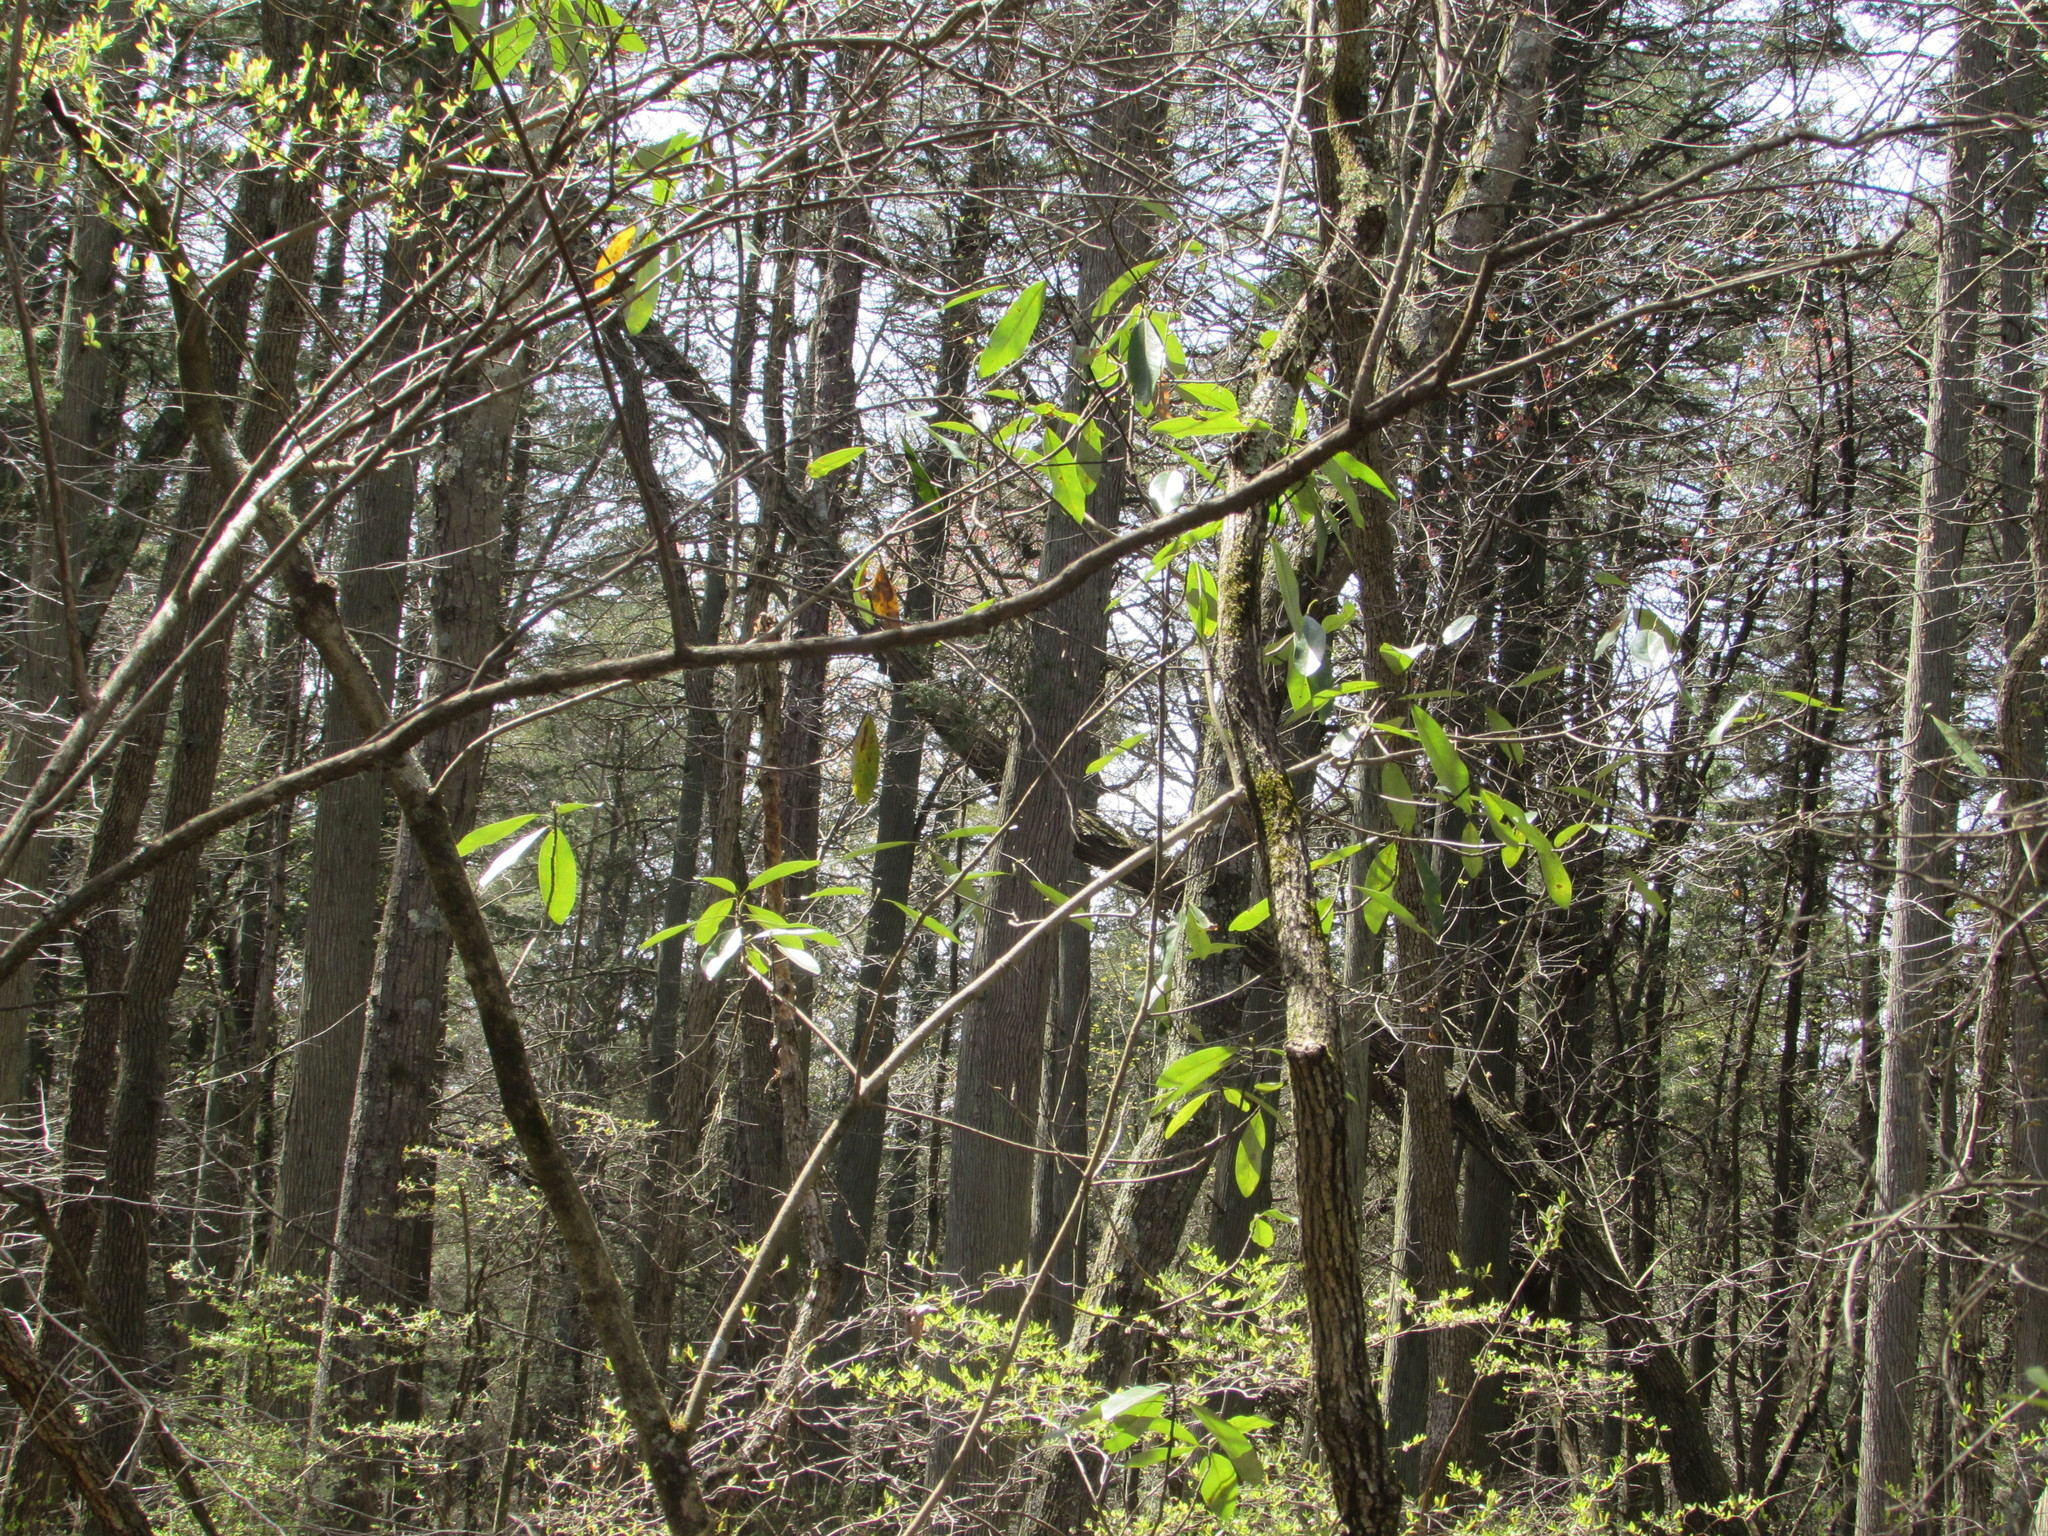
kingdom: Plantae
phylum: Tracheophyta
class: Magnoliopsida
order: Magnoliales
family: Magnoliaceae
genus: Magnolia
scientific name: Magnolia virginiana
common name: Swamp bay
